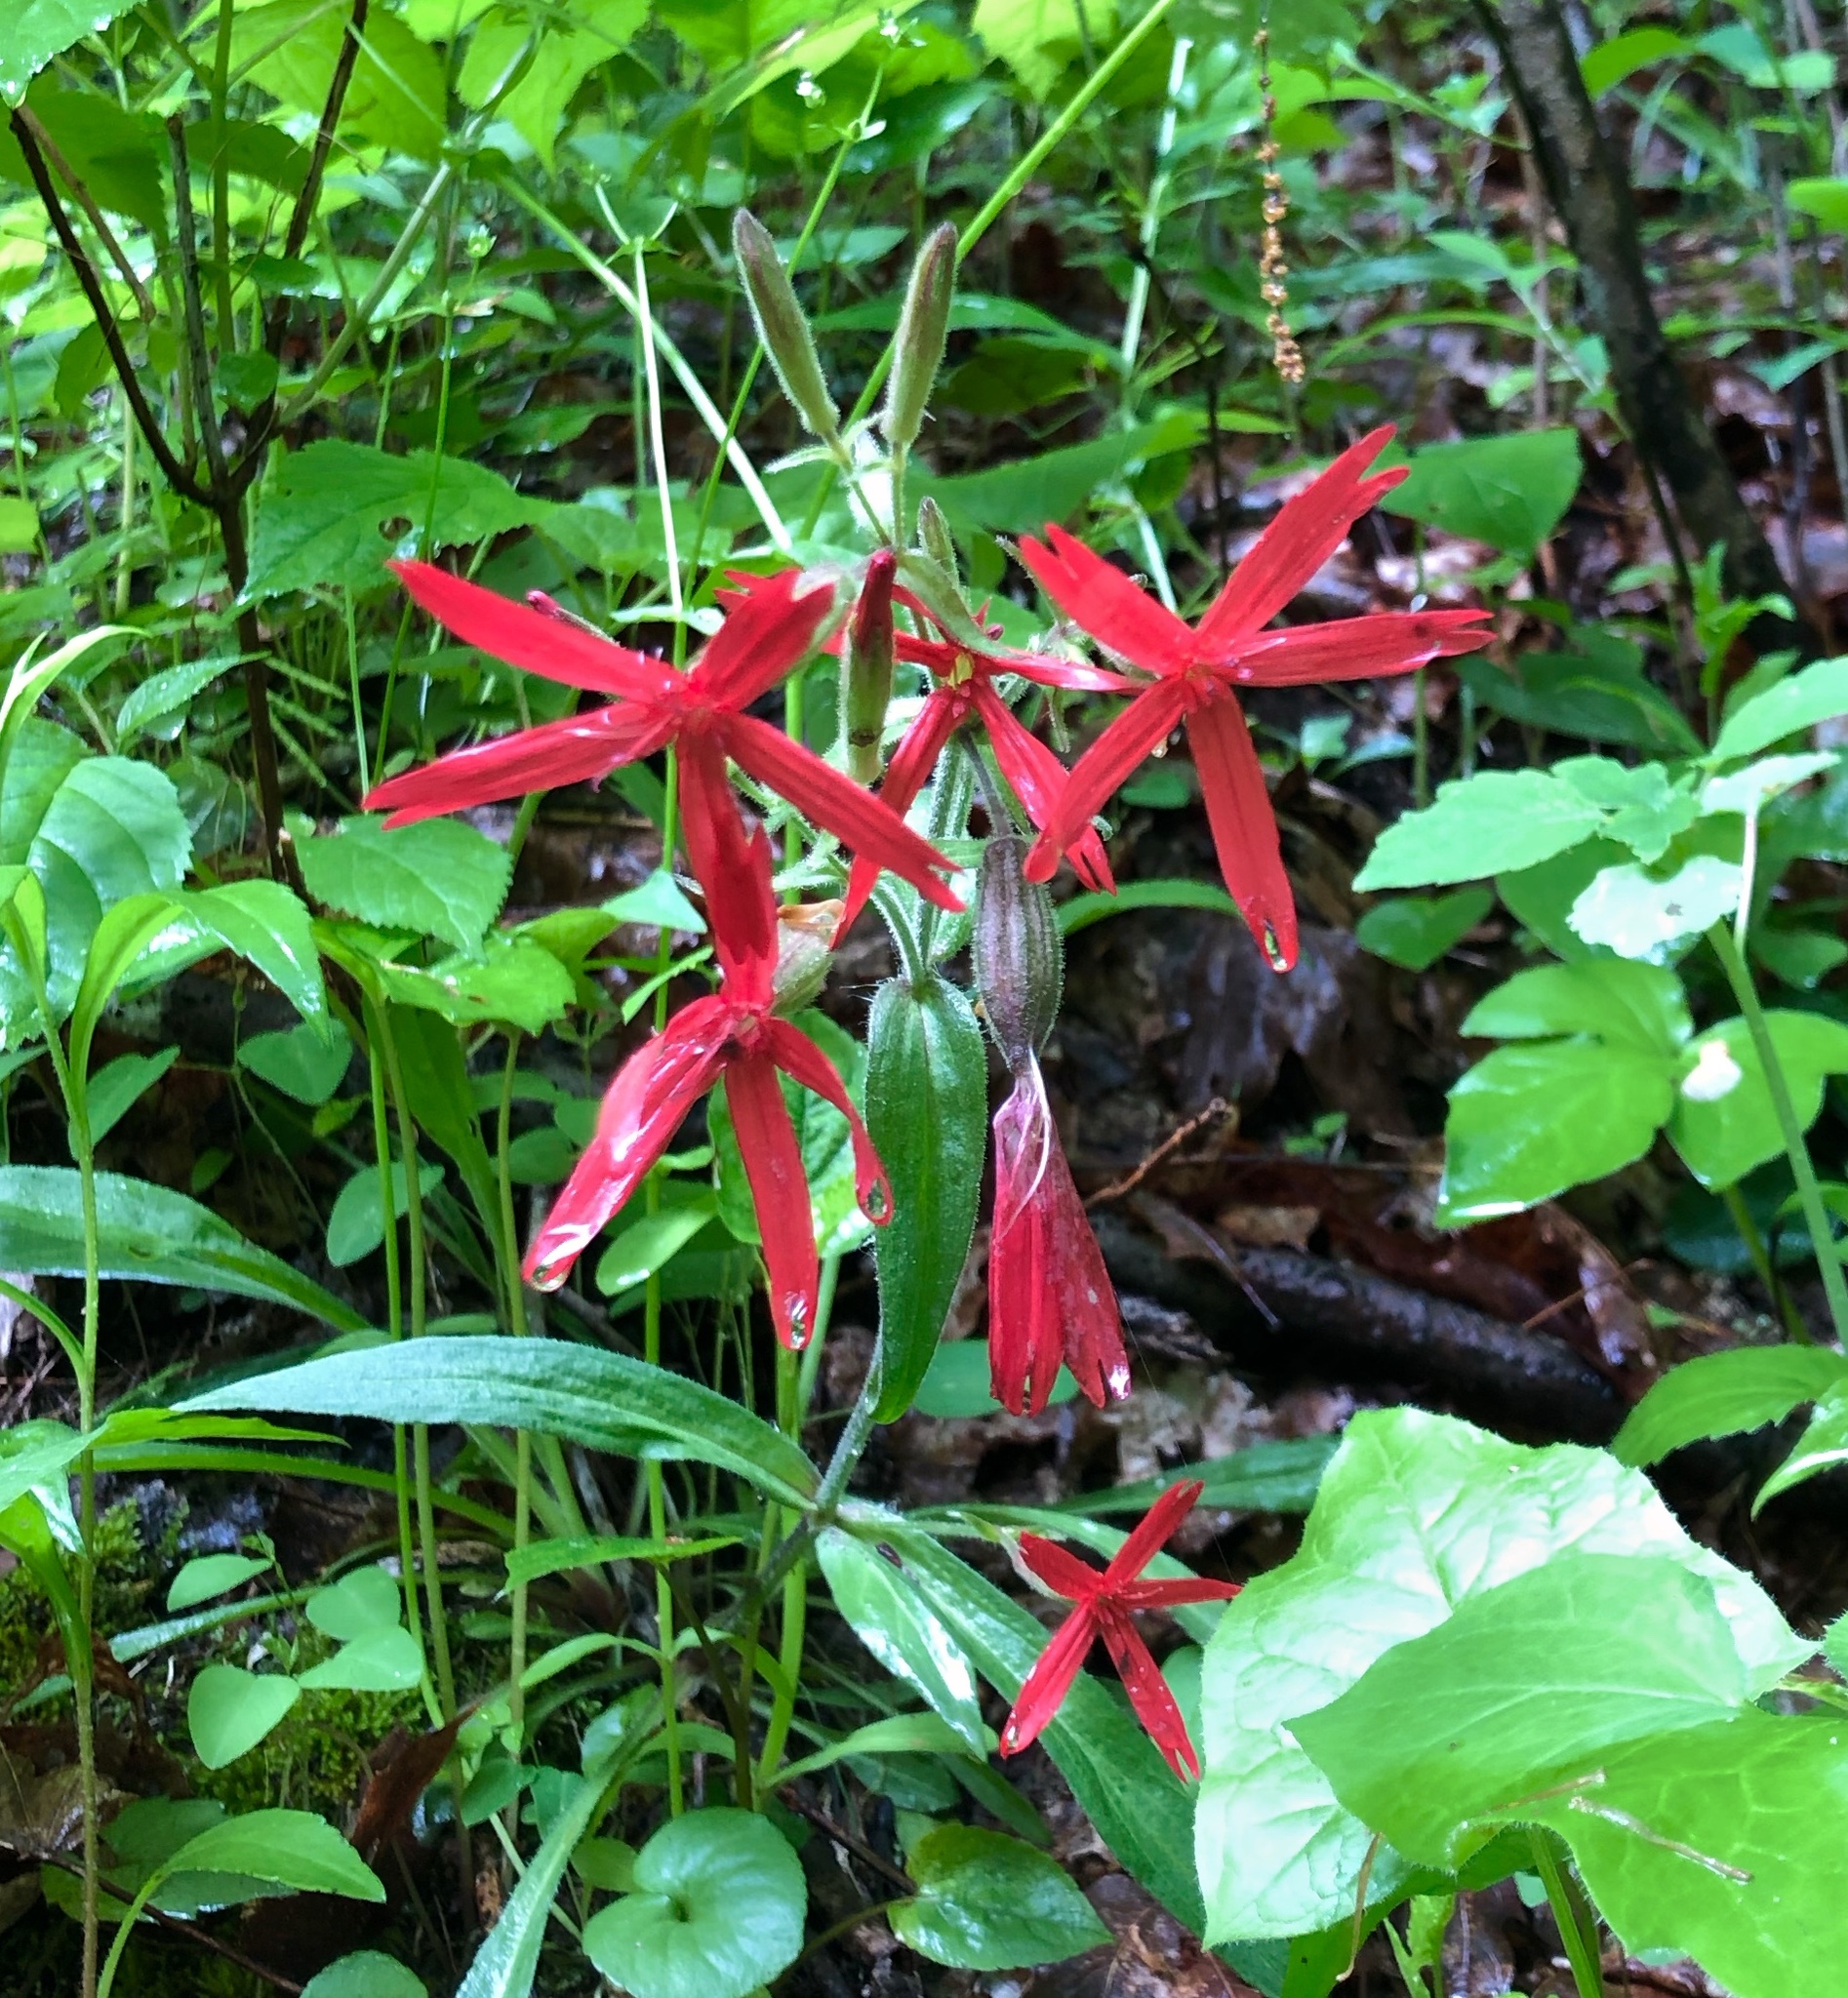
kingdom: Plantae
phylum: Tracheophyta
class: Magnoliopsida
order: Caryophyllales
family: Caryophyllaceae
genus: Silene
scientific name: Silene virginica
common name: Fire-pink
